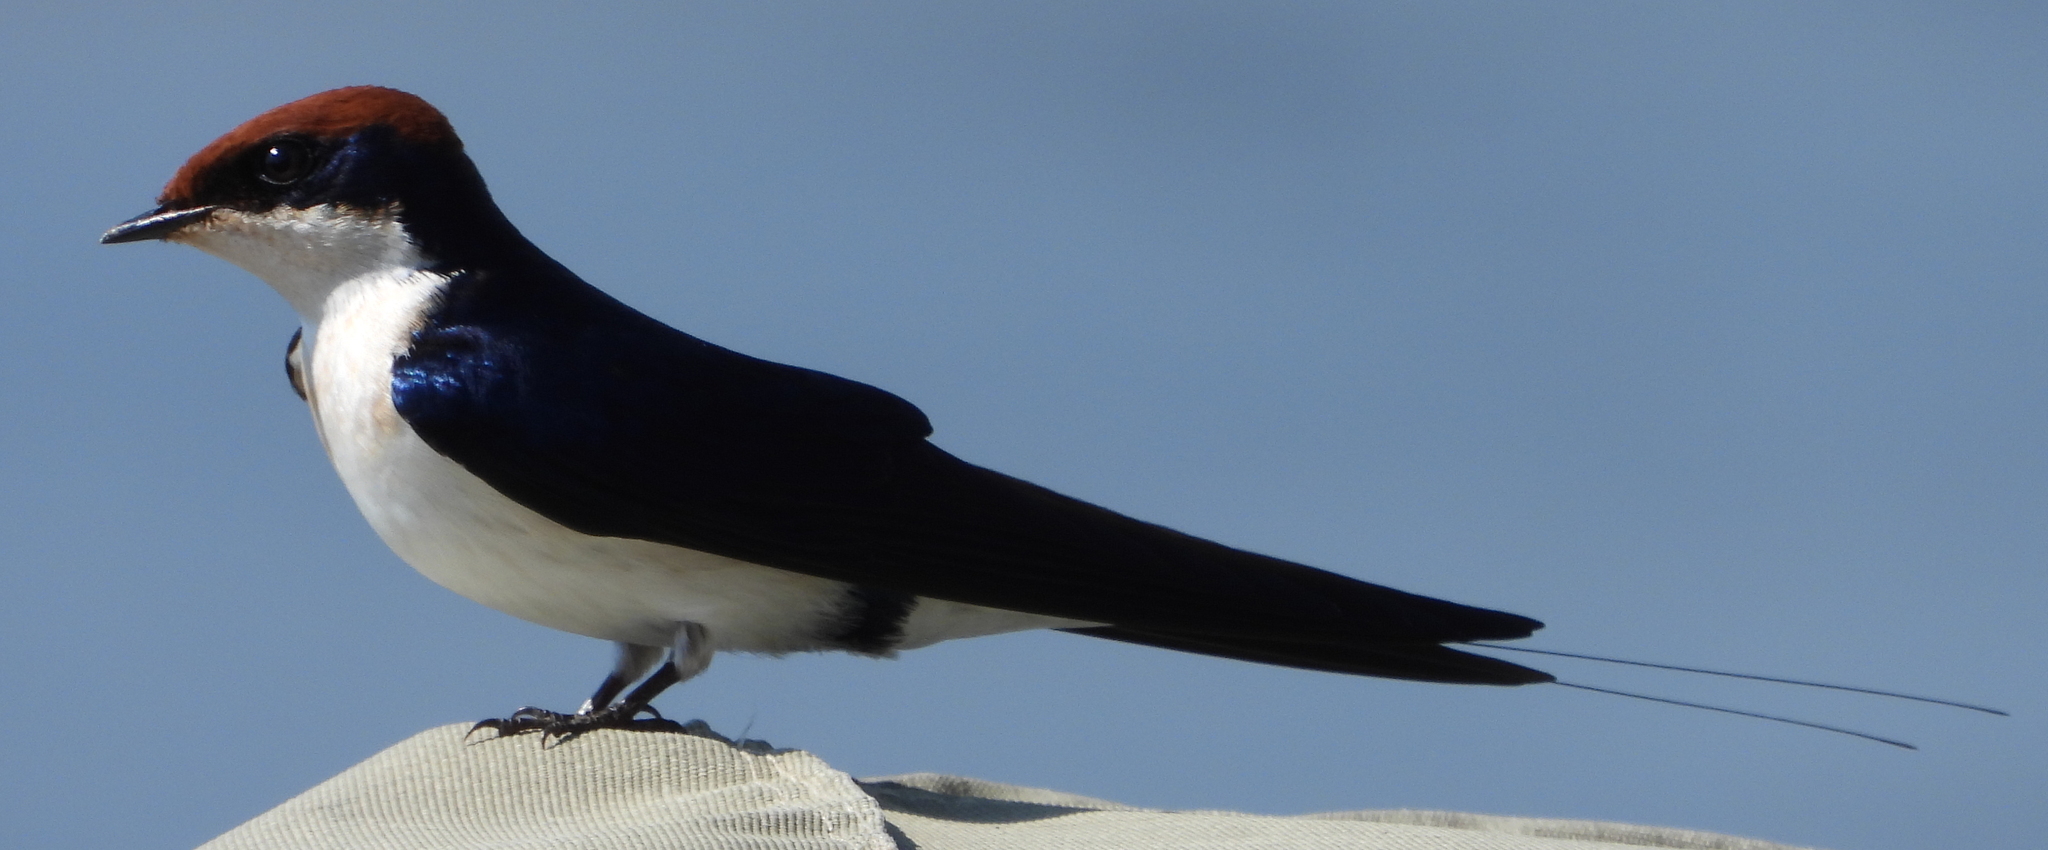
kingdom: Animalia
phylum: Chordata
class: Aves
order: Passeriformes
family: Hirundinidae
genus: Hirundo
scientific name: Hirundo smithii
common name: Wire-tailed swallow
